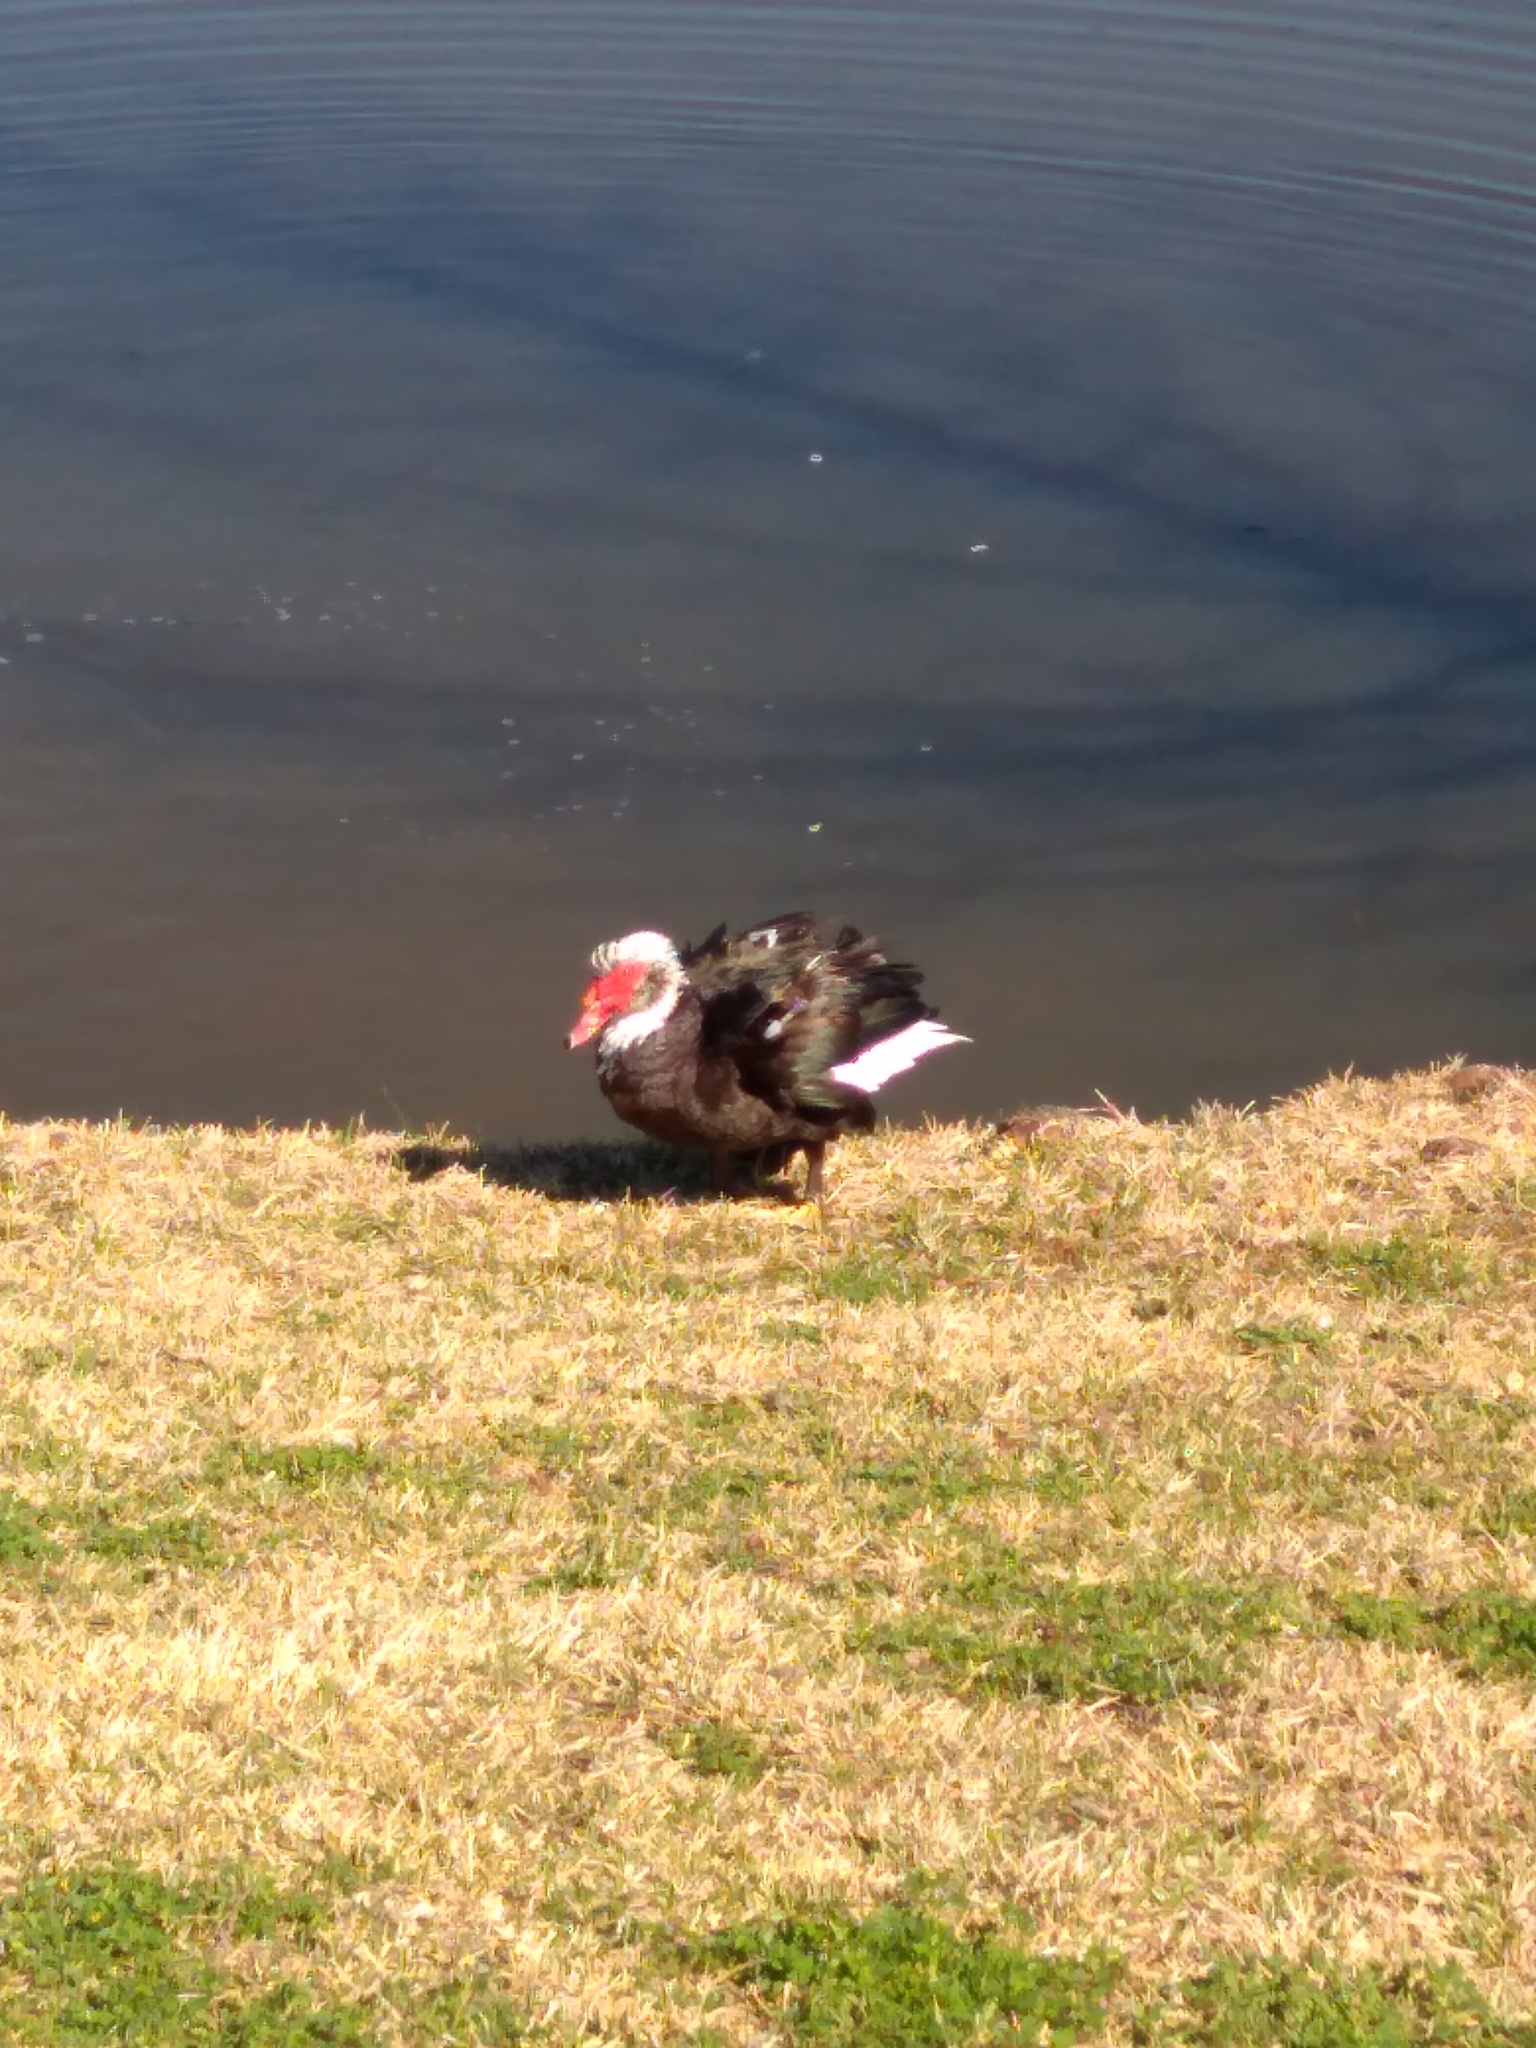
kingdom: Animalia
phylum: Chordata
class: Aves
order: Anseriformes
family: Anatidae
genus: Cairina
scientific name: Cairina moschata
